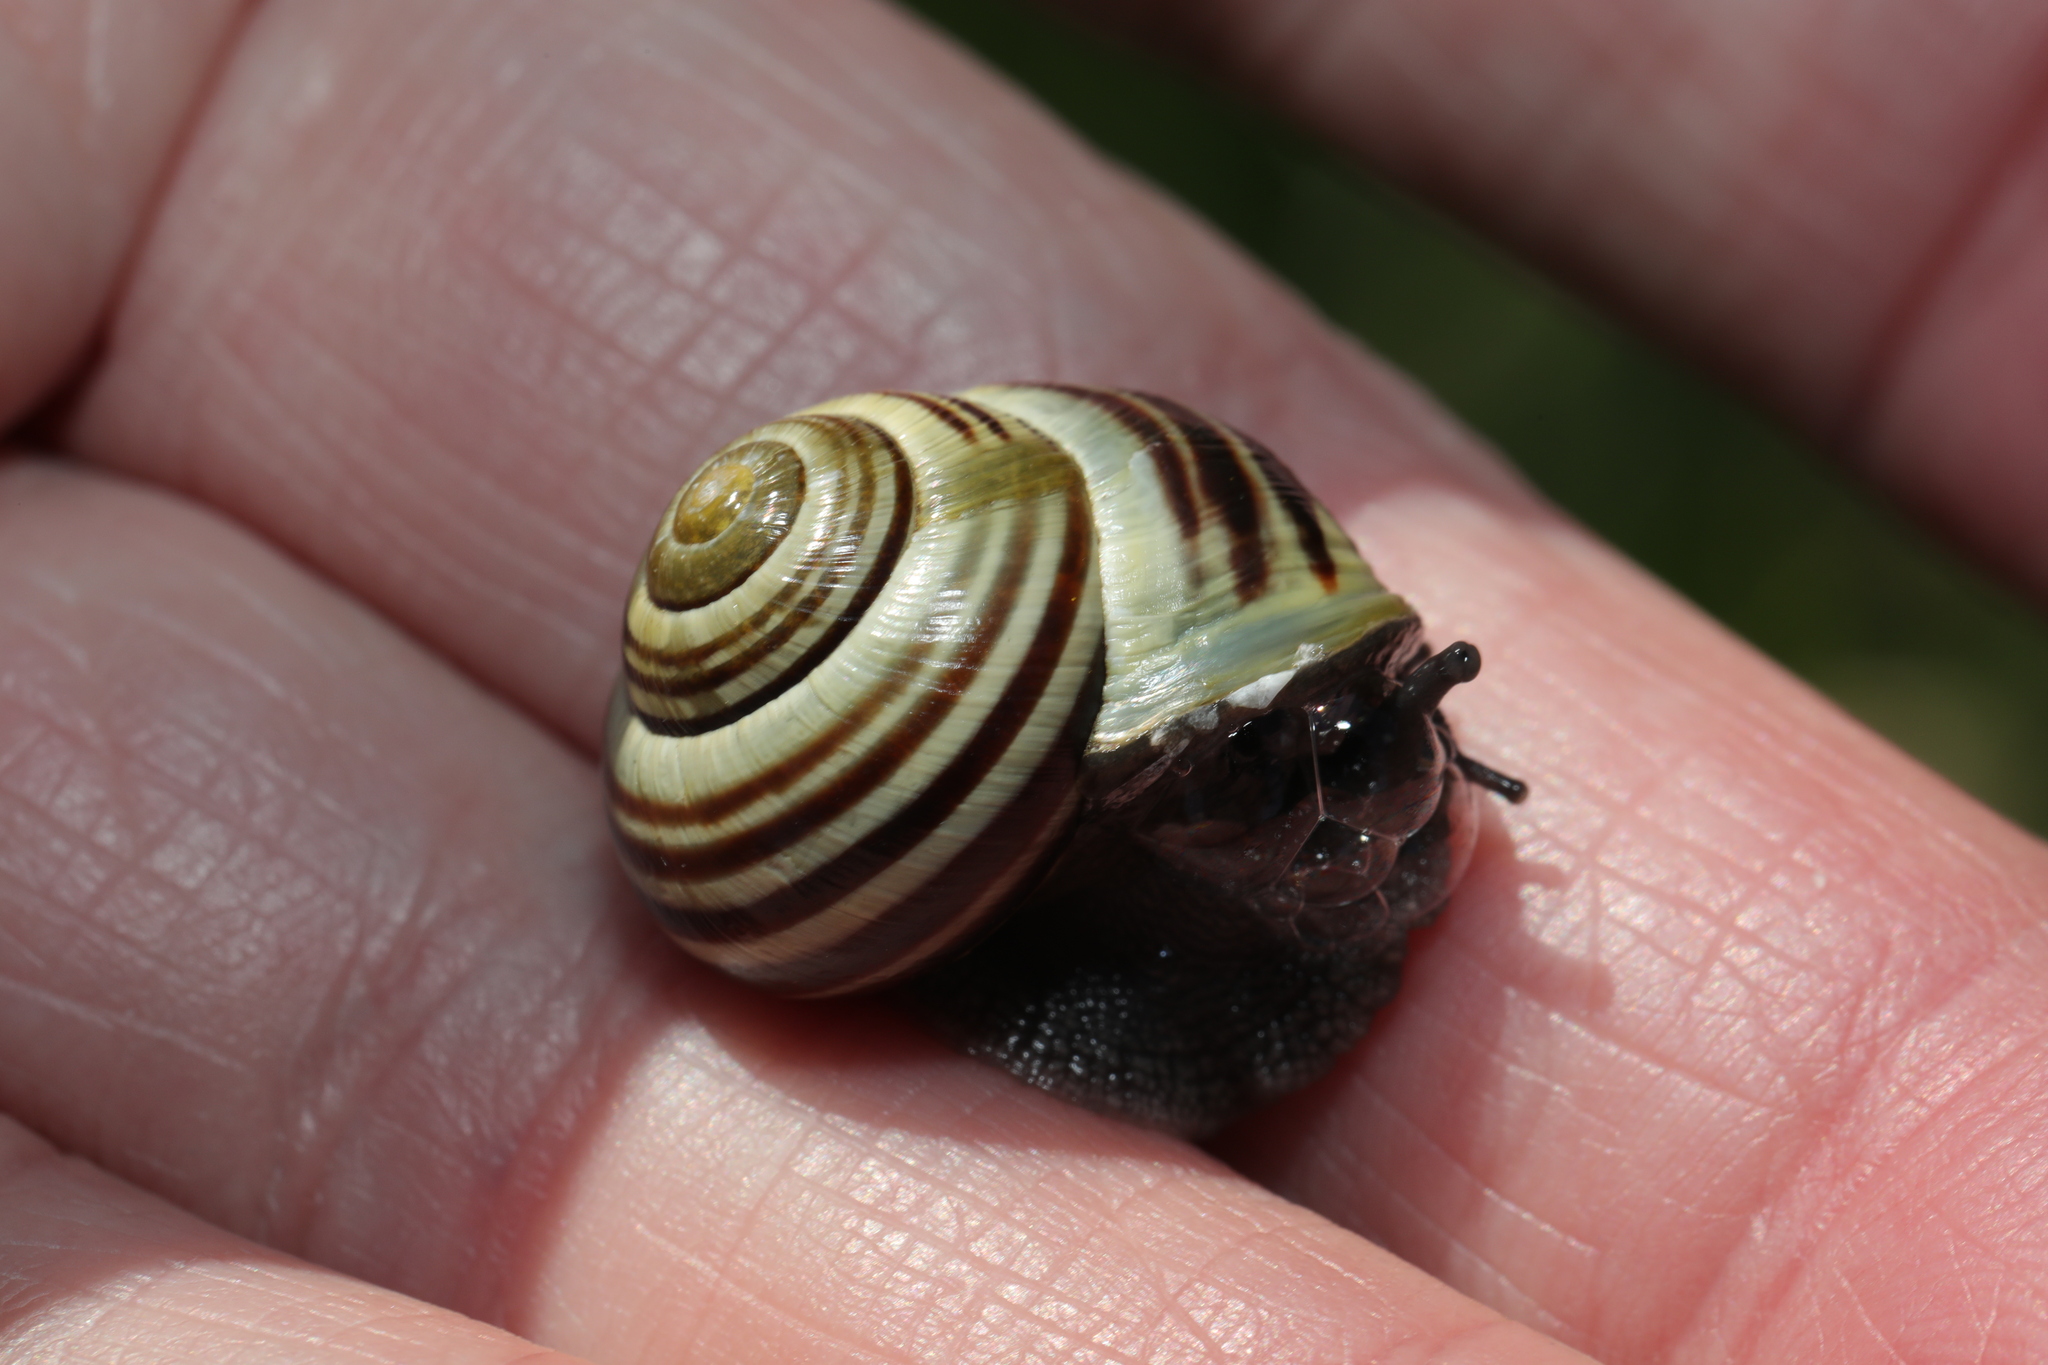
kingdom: Animalia
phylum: Mollusca
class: Gastropoda
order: Stylommatophora
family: Helicidae
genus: Cepaea
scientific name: Cepaea hortensis
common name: White-lip gardensnail
